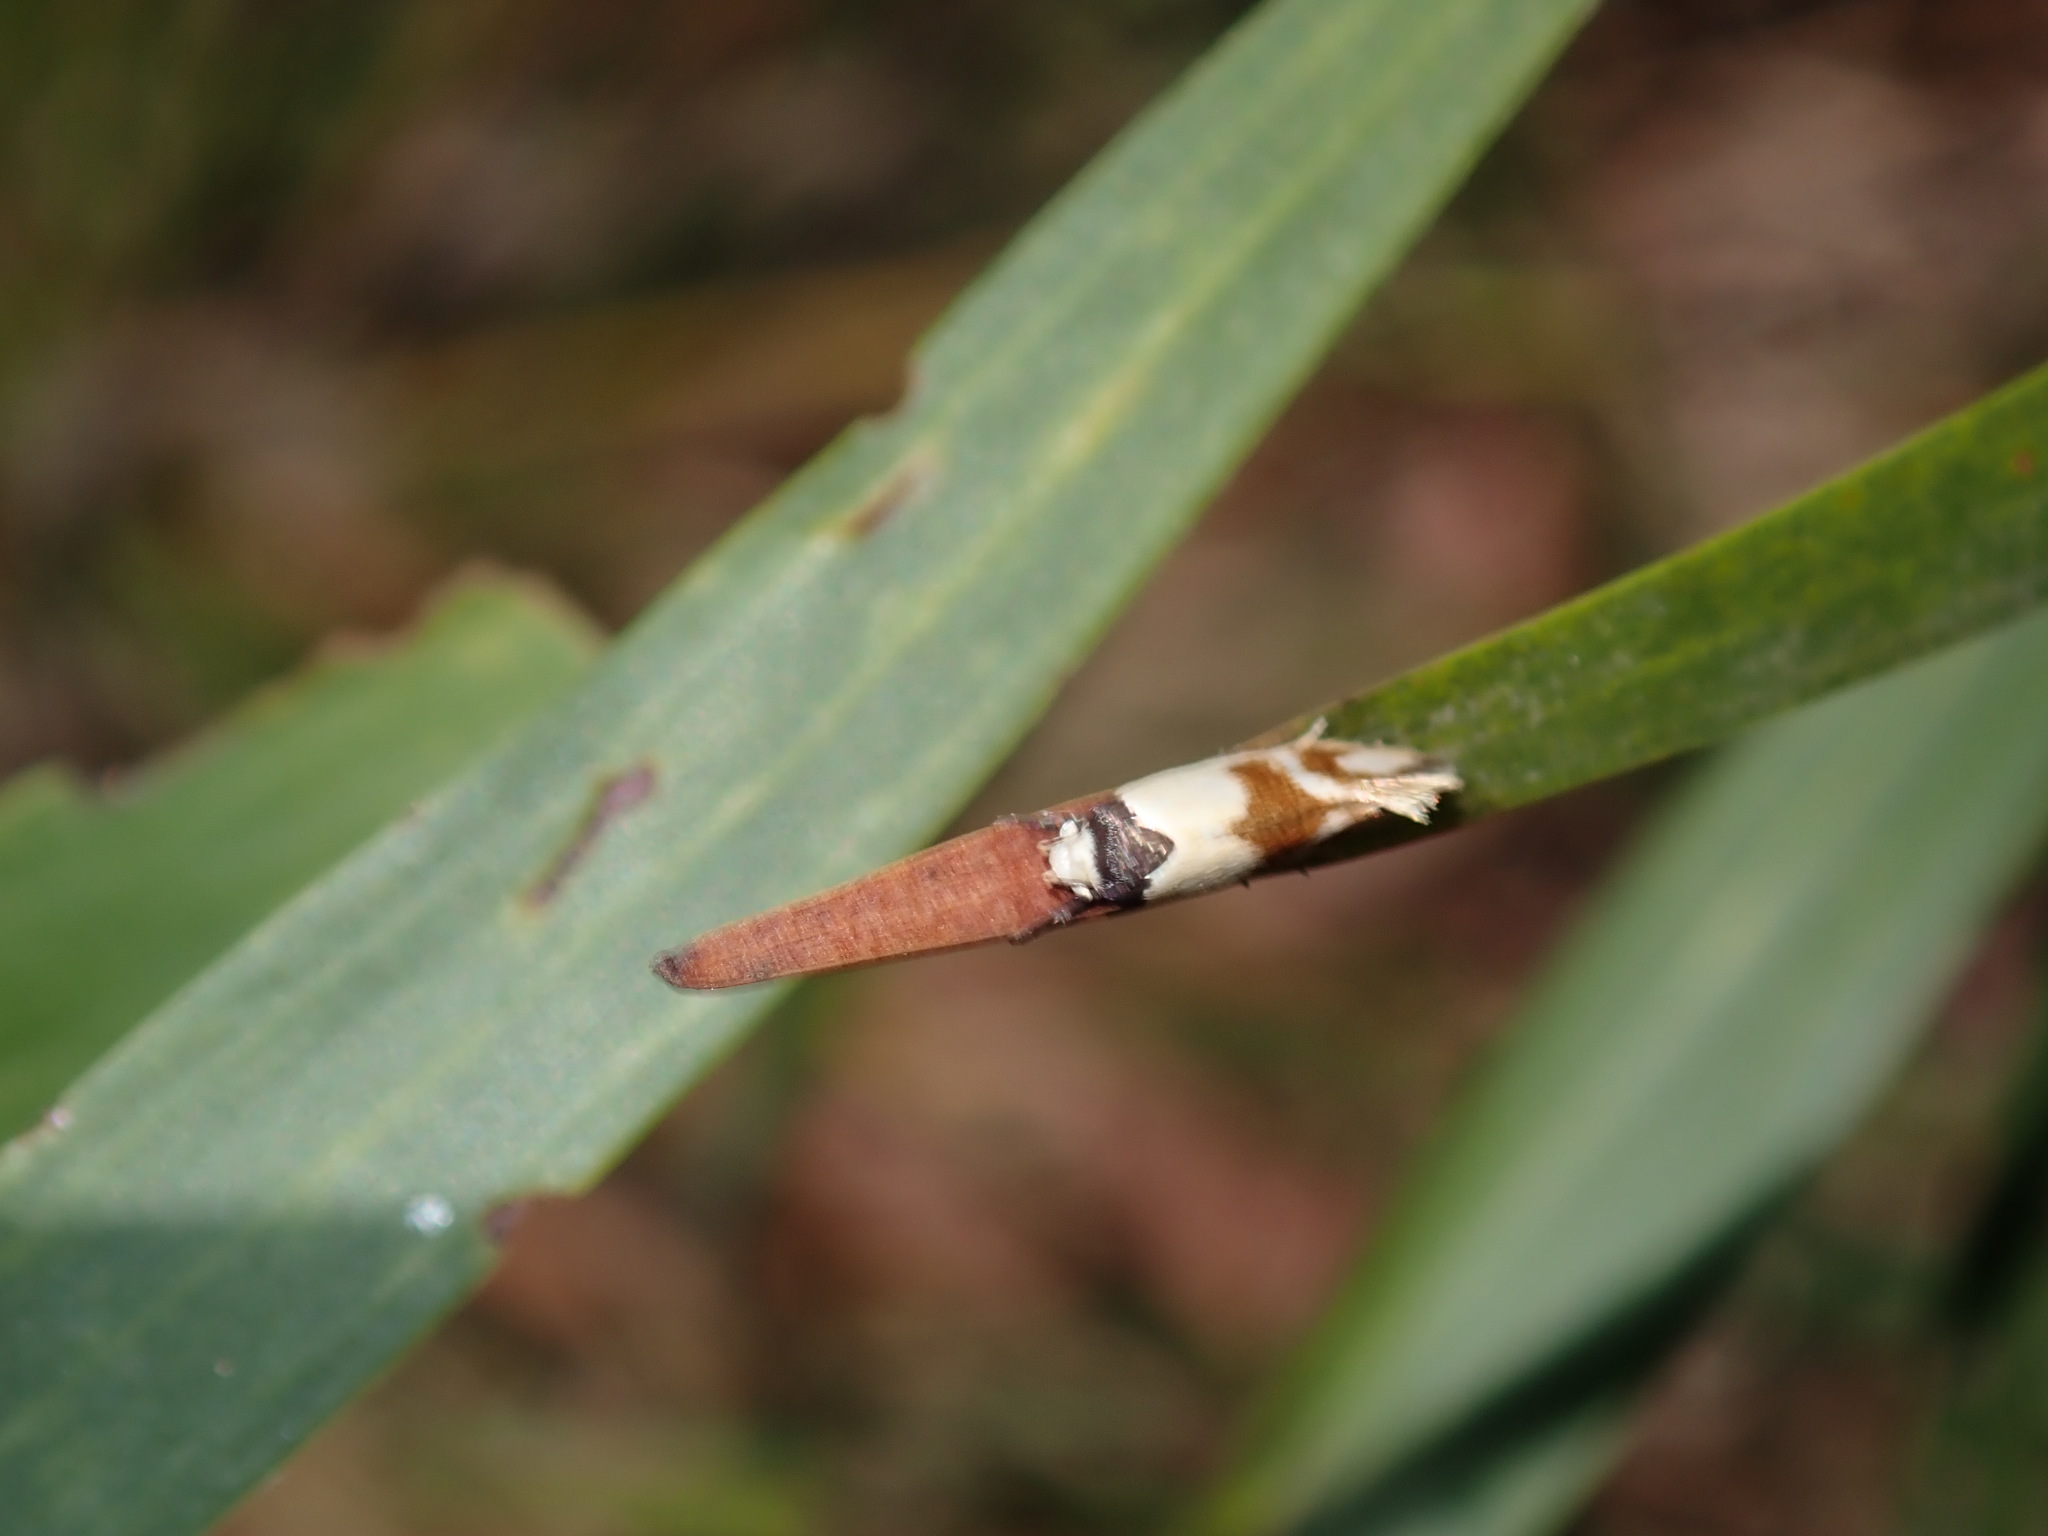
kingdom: Animalia
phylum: Arthropoda
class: Insecta
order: Lepidoptera
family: Oecophoridae
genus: Antipterna
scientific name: Antipterna trilicella
